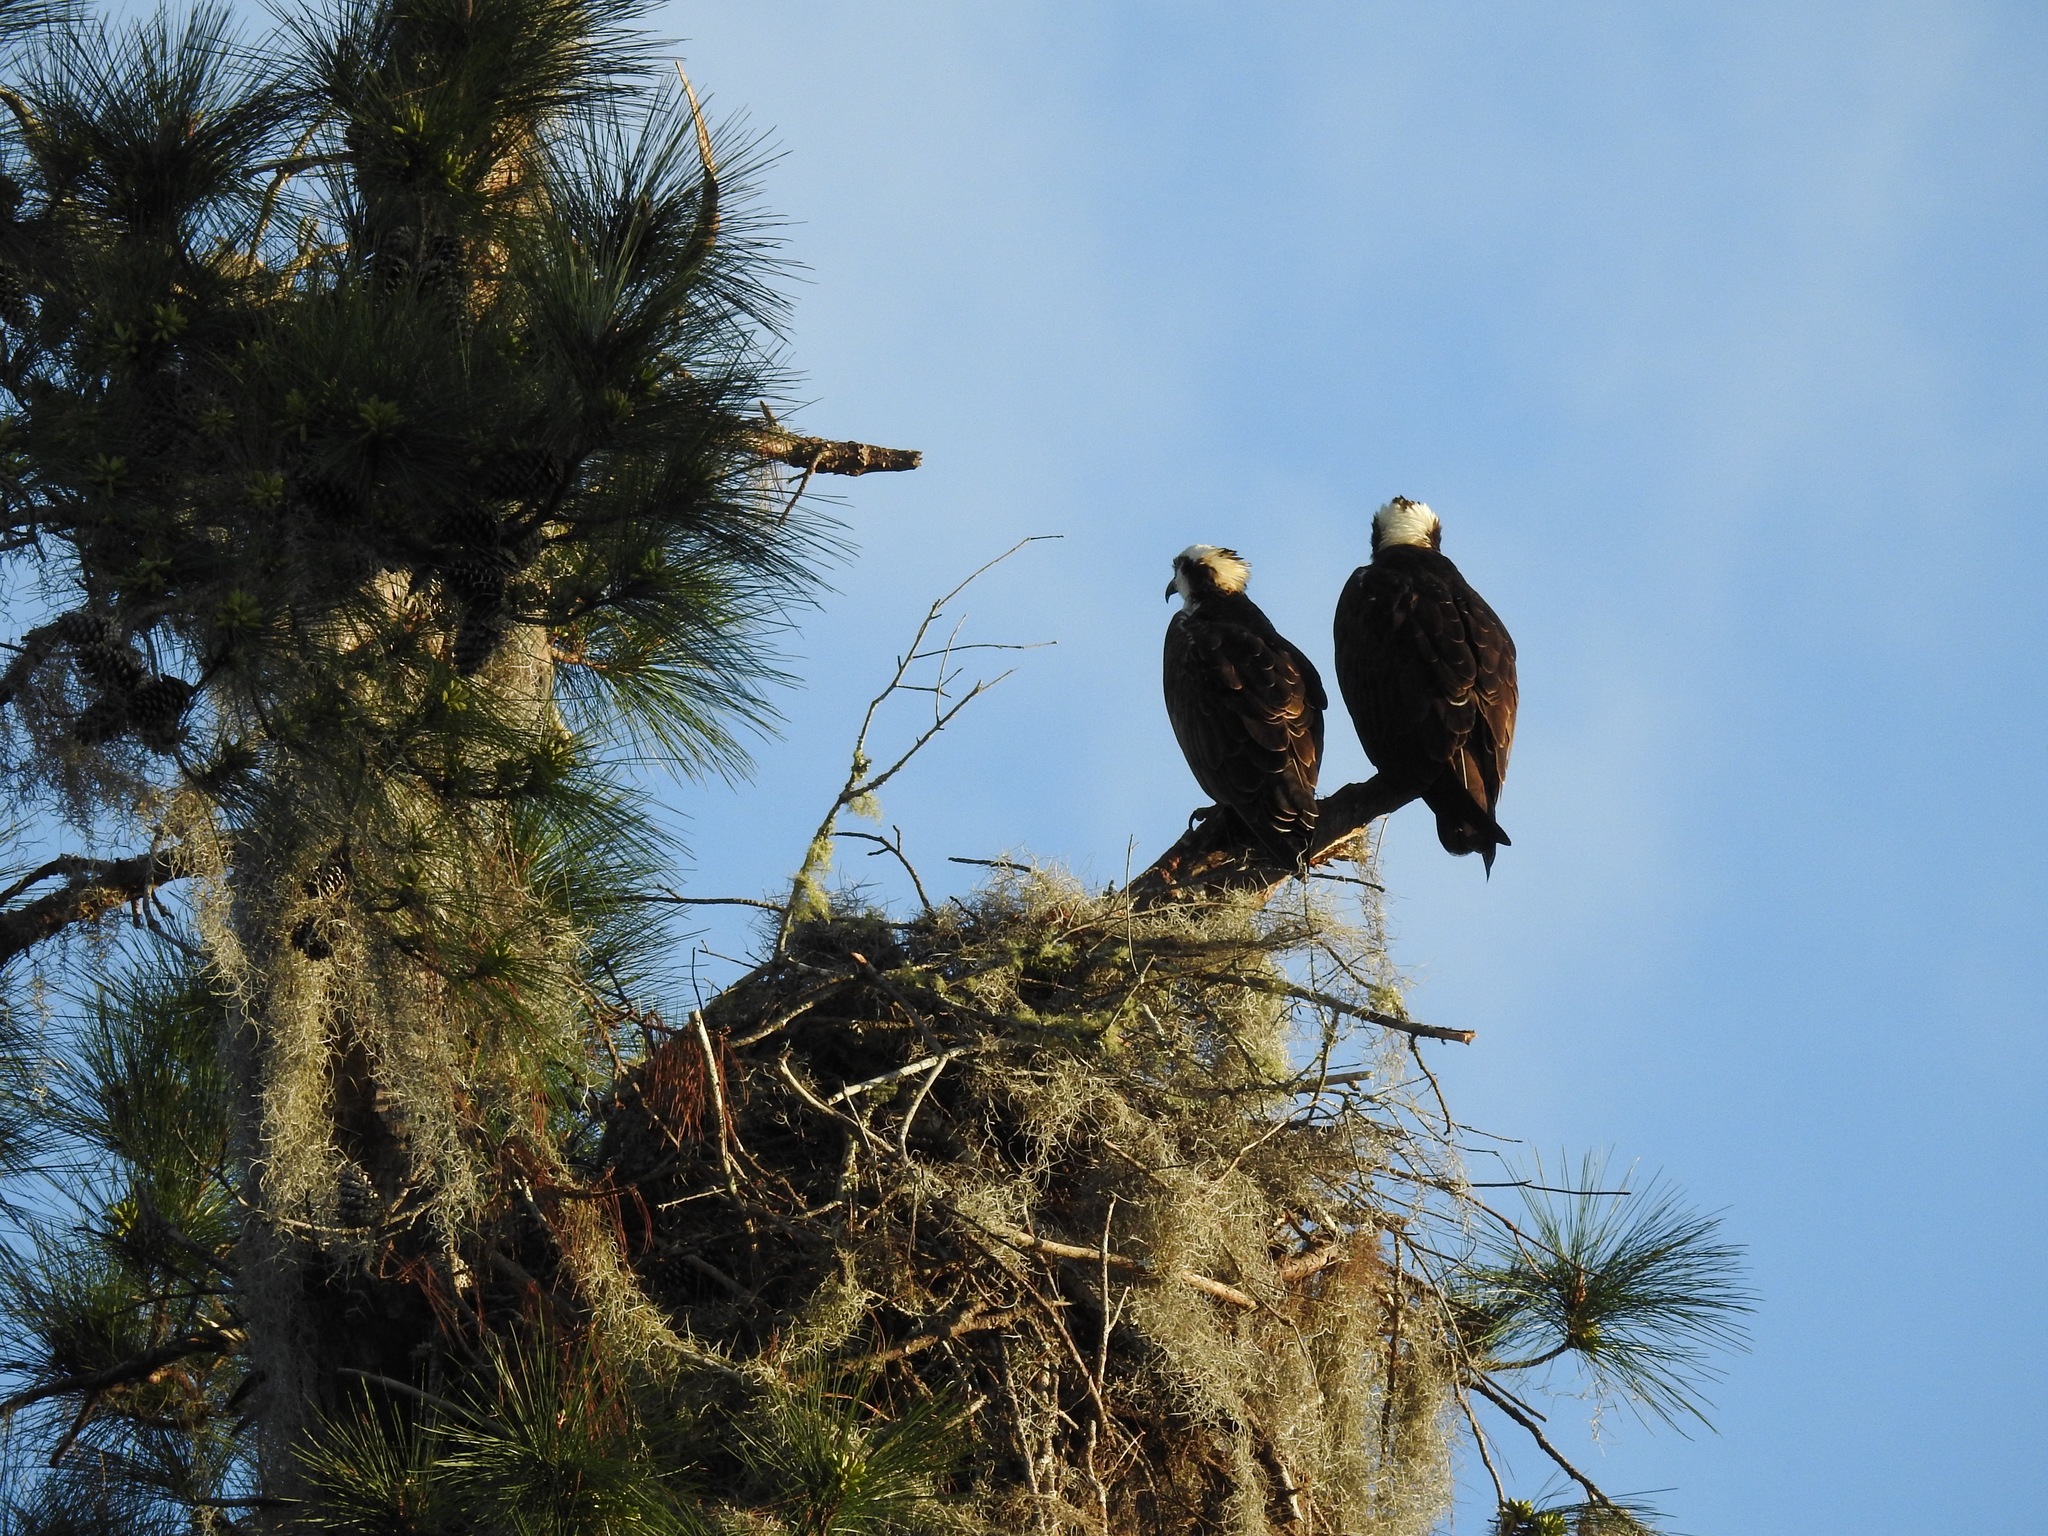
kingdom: Animalia
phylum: Chordata
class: Aves
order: Accipitriformes
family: Pandionidae
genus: Pandion
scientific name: Pandion haliaetus
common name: Osprey
